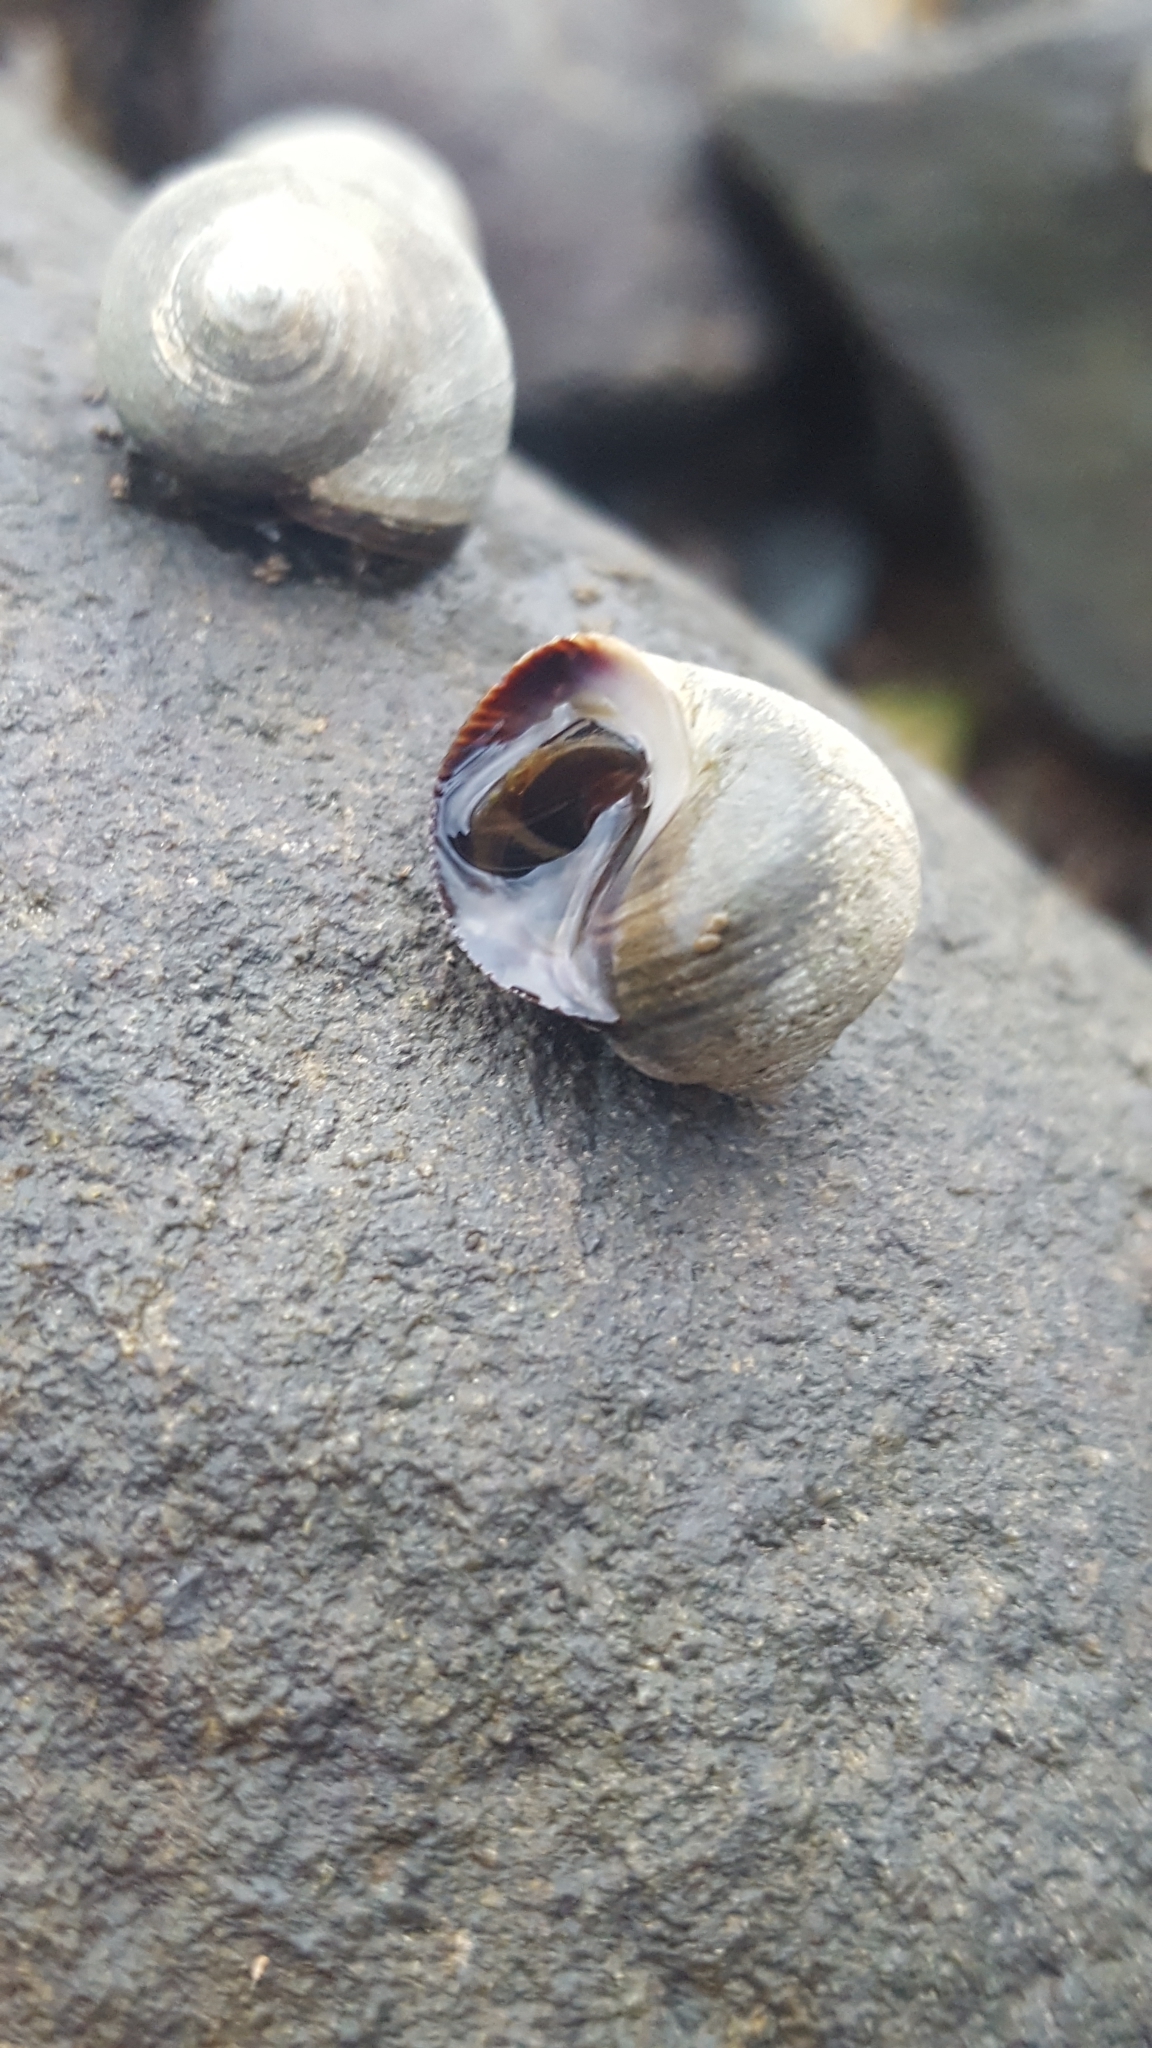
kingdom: Animalia
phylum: Mollusca
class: Gastropoda
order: Littorinimorpha
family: Littorinidae
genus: Littorina
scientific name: Littorina littorea
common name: Common periwinkle
